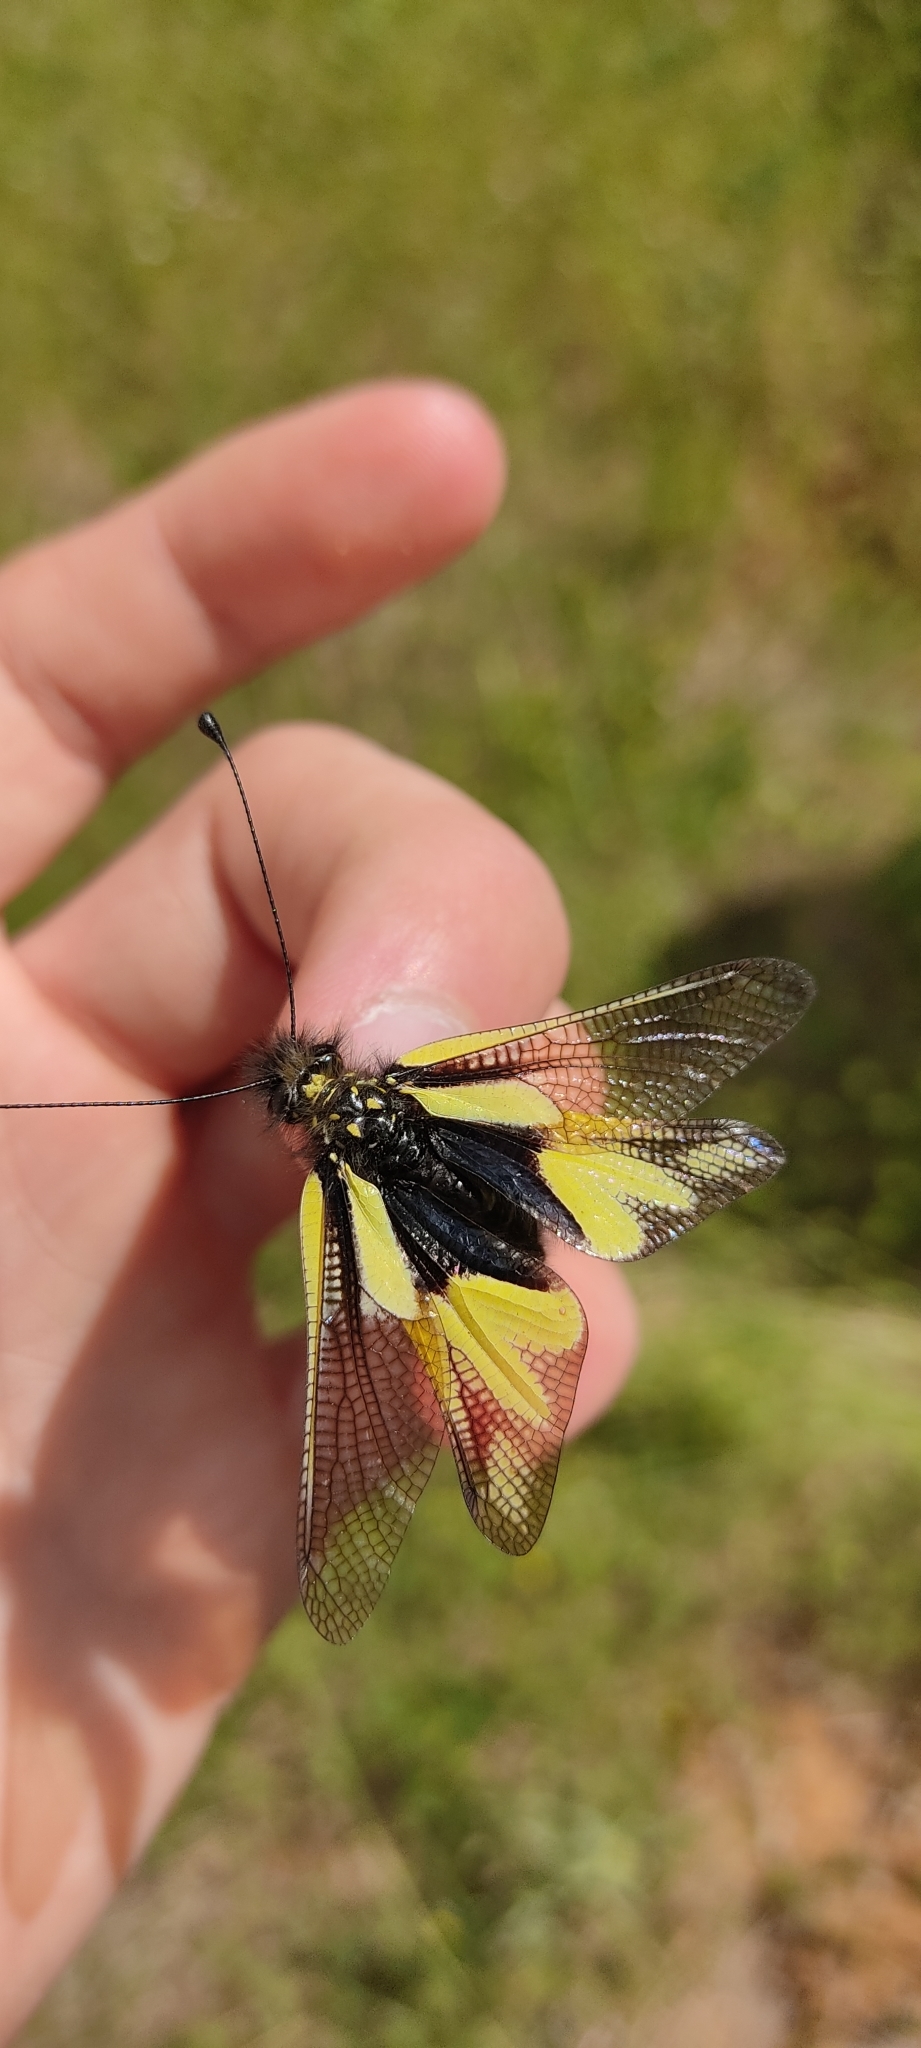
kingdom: Animalia
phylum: Arthropoda
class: Insecta
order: Neuroptera
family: Ascalaphidae
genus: Libelloides
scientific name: Libelloides coccajus
